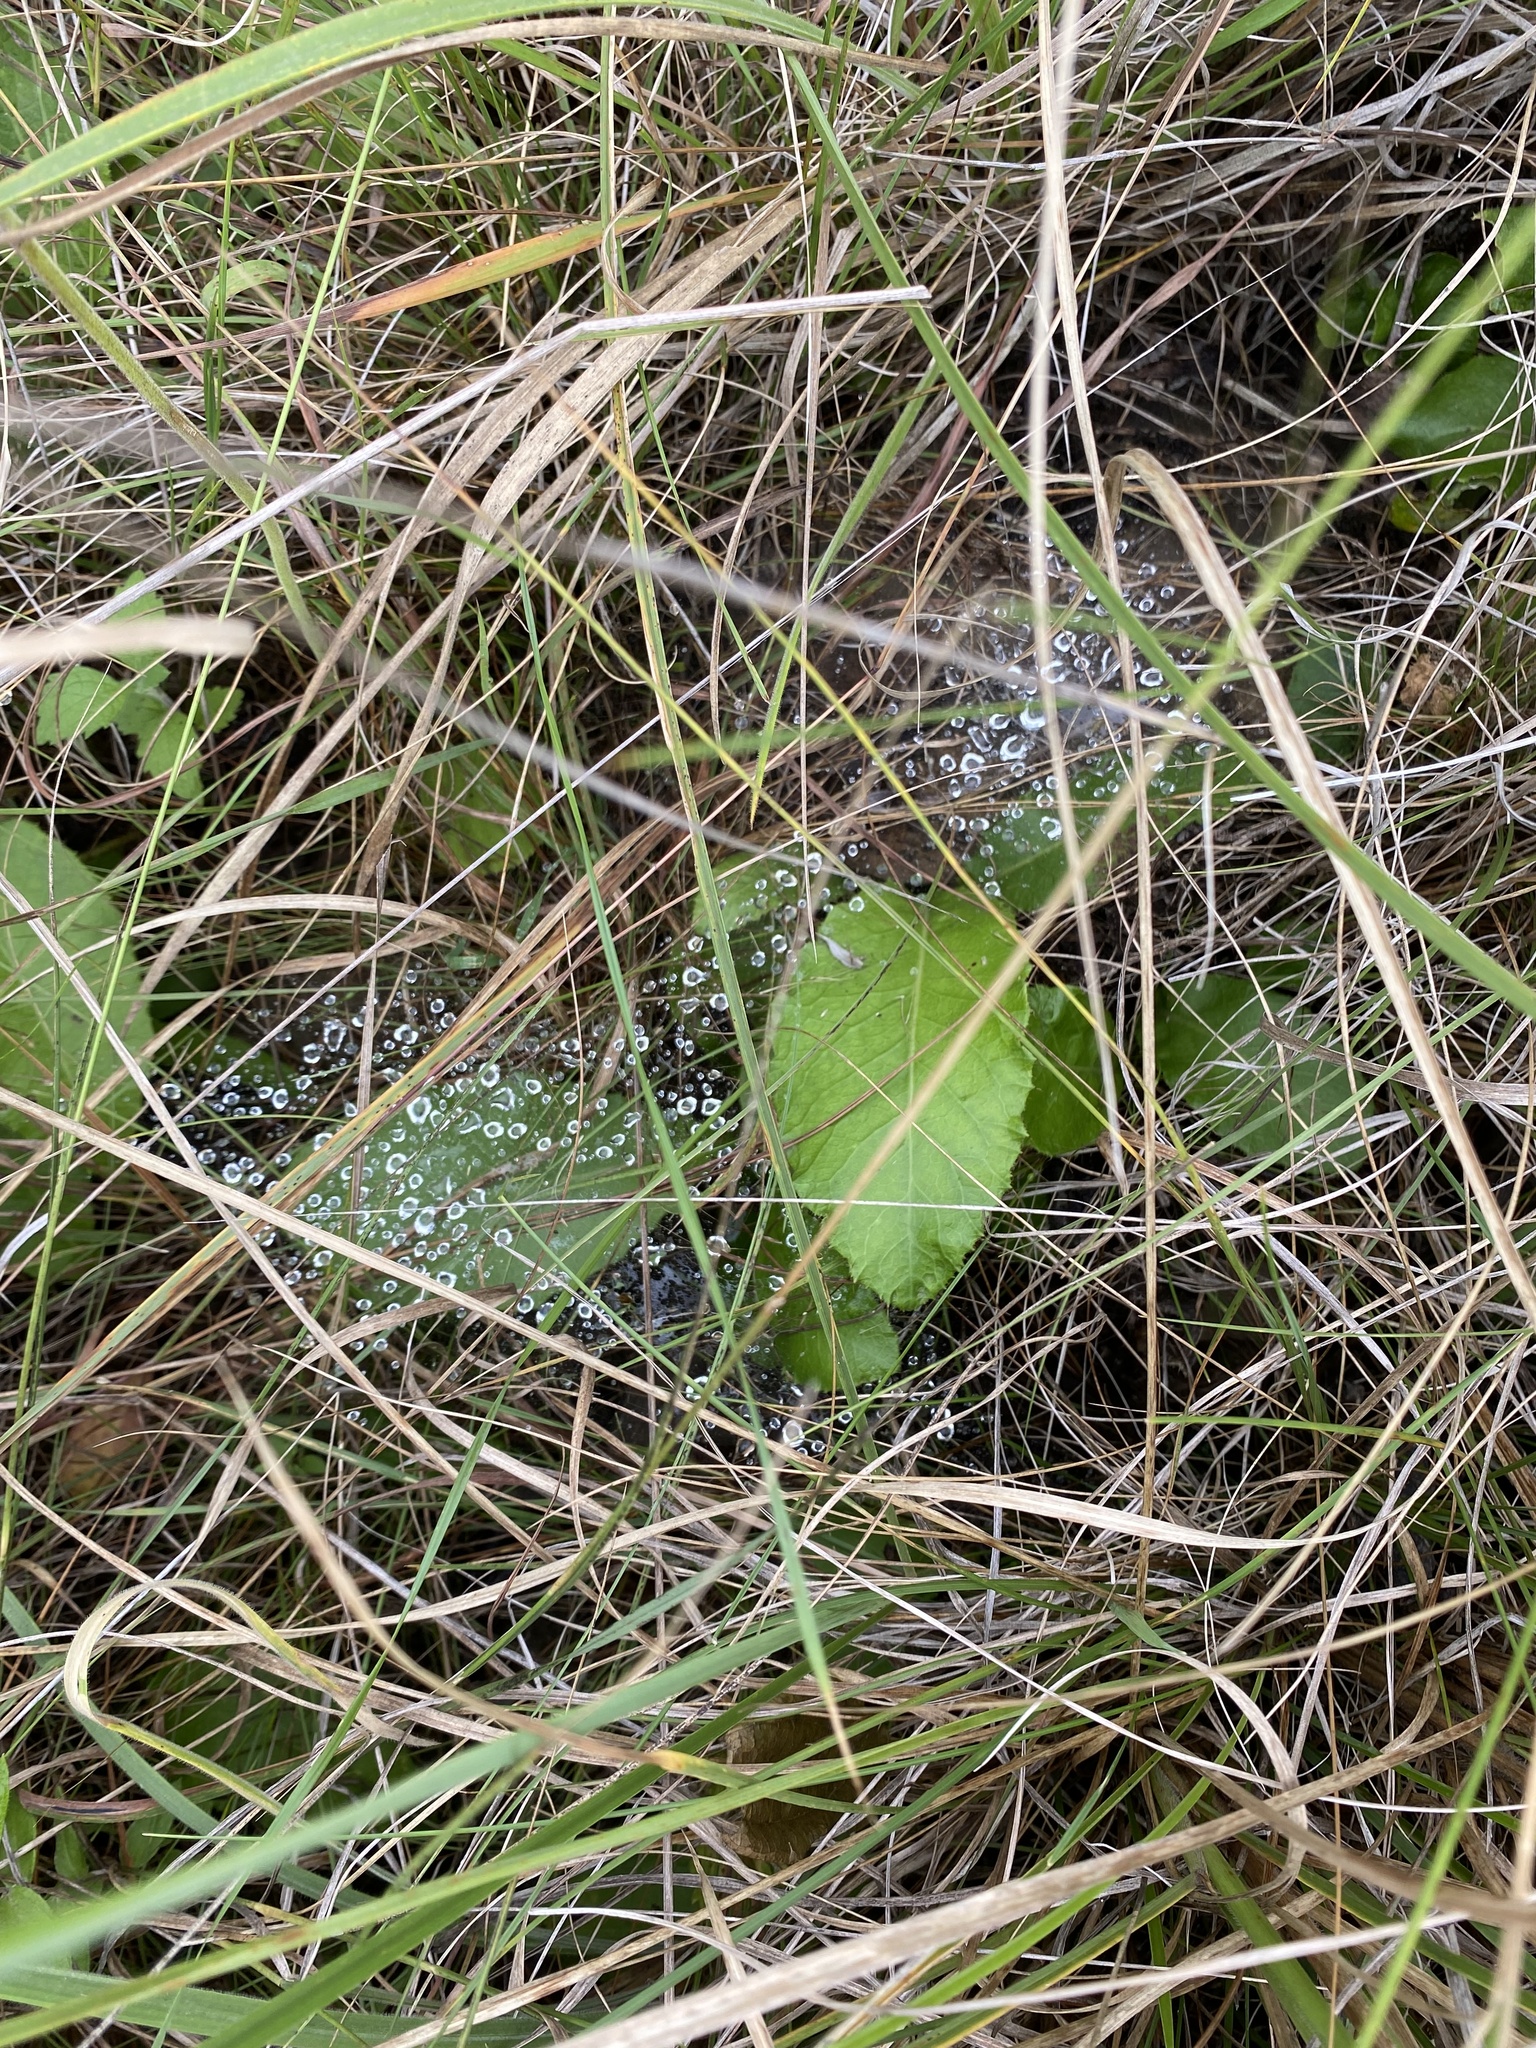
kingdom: Plantae
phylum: Tracheophyta
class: Magnoliopsida
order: Asterales
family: Asteraceae
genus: Berkheya
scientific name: Berkheya speciosa
